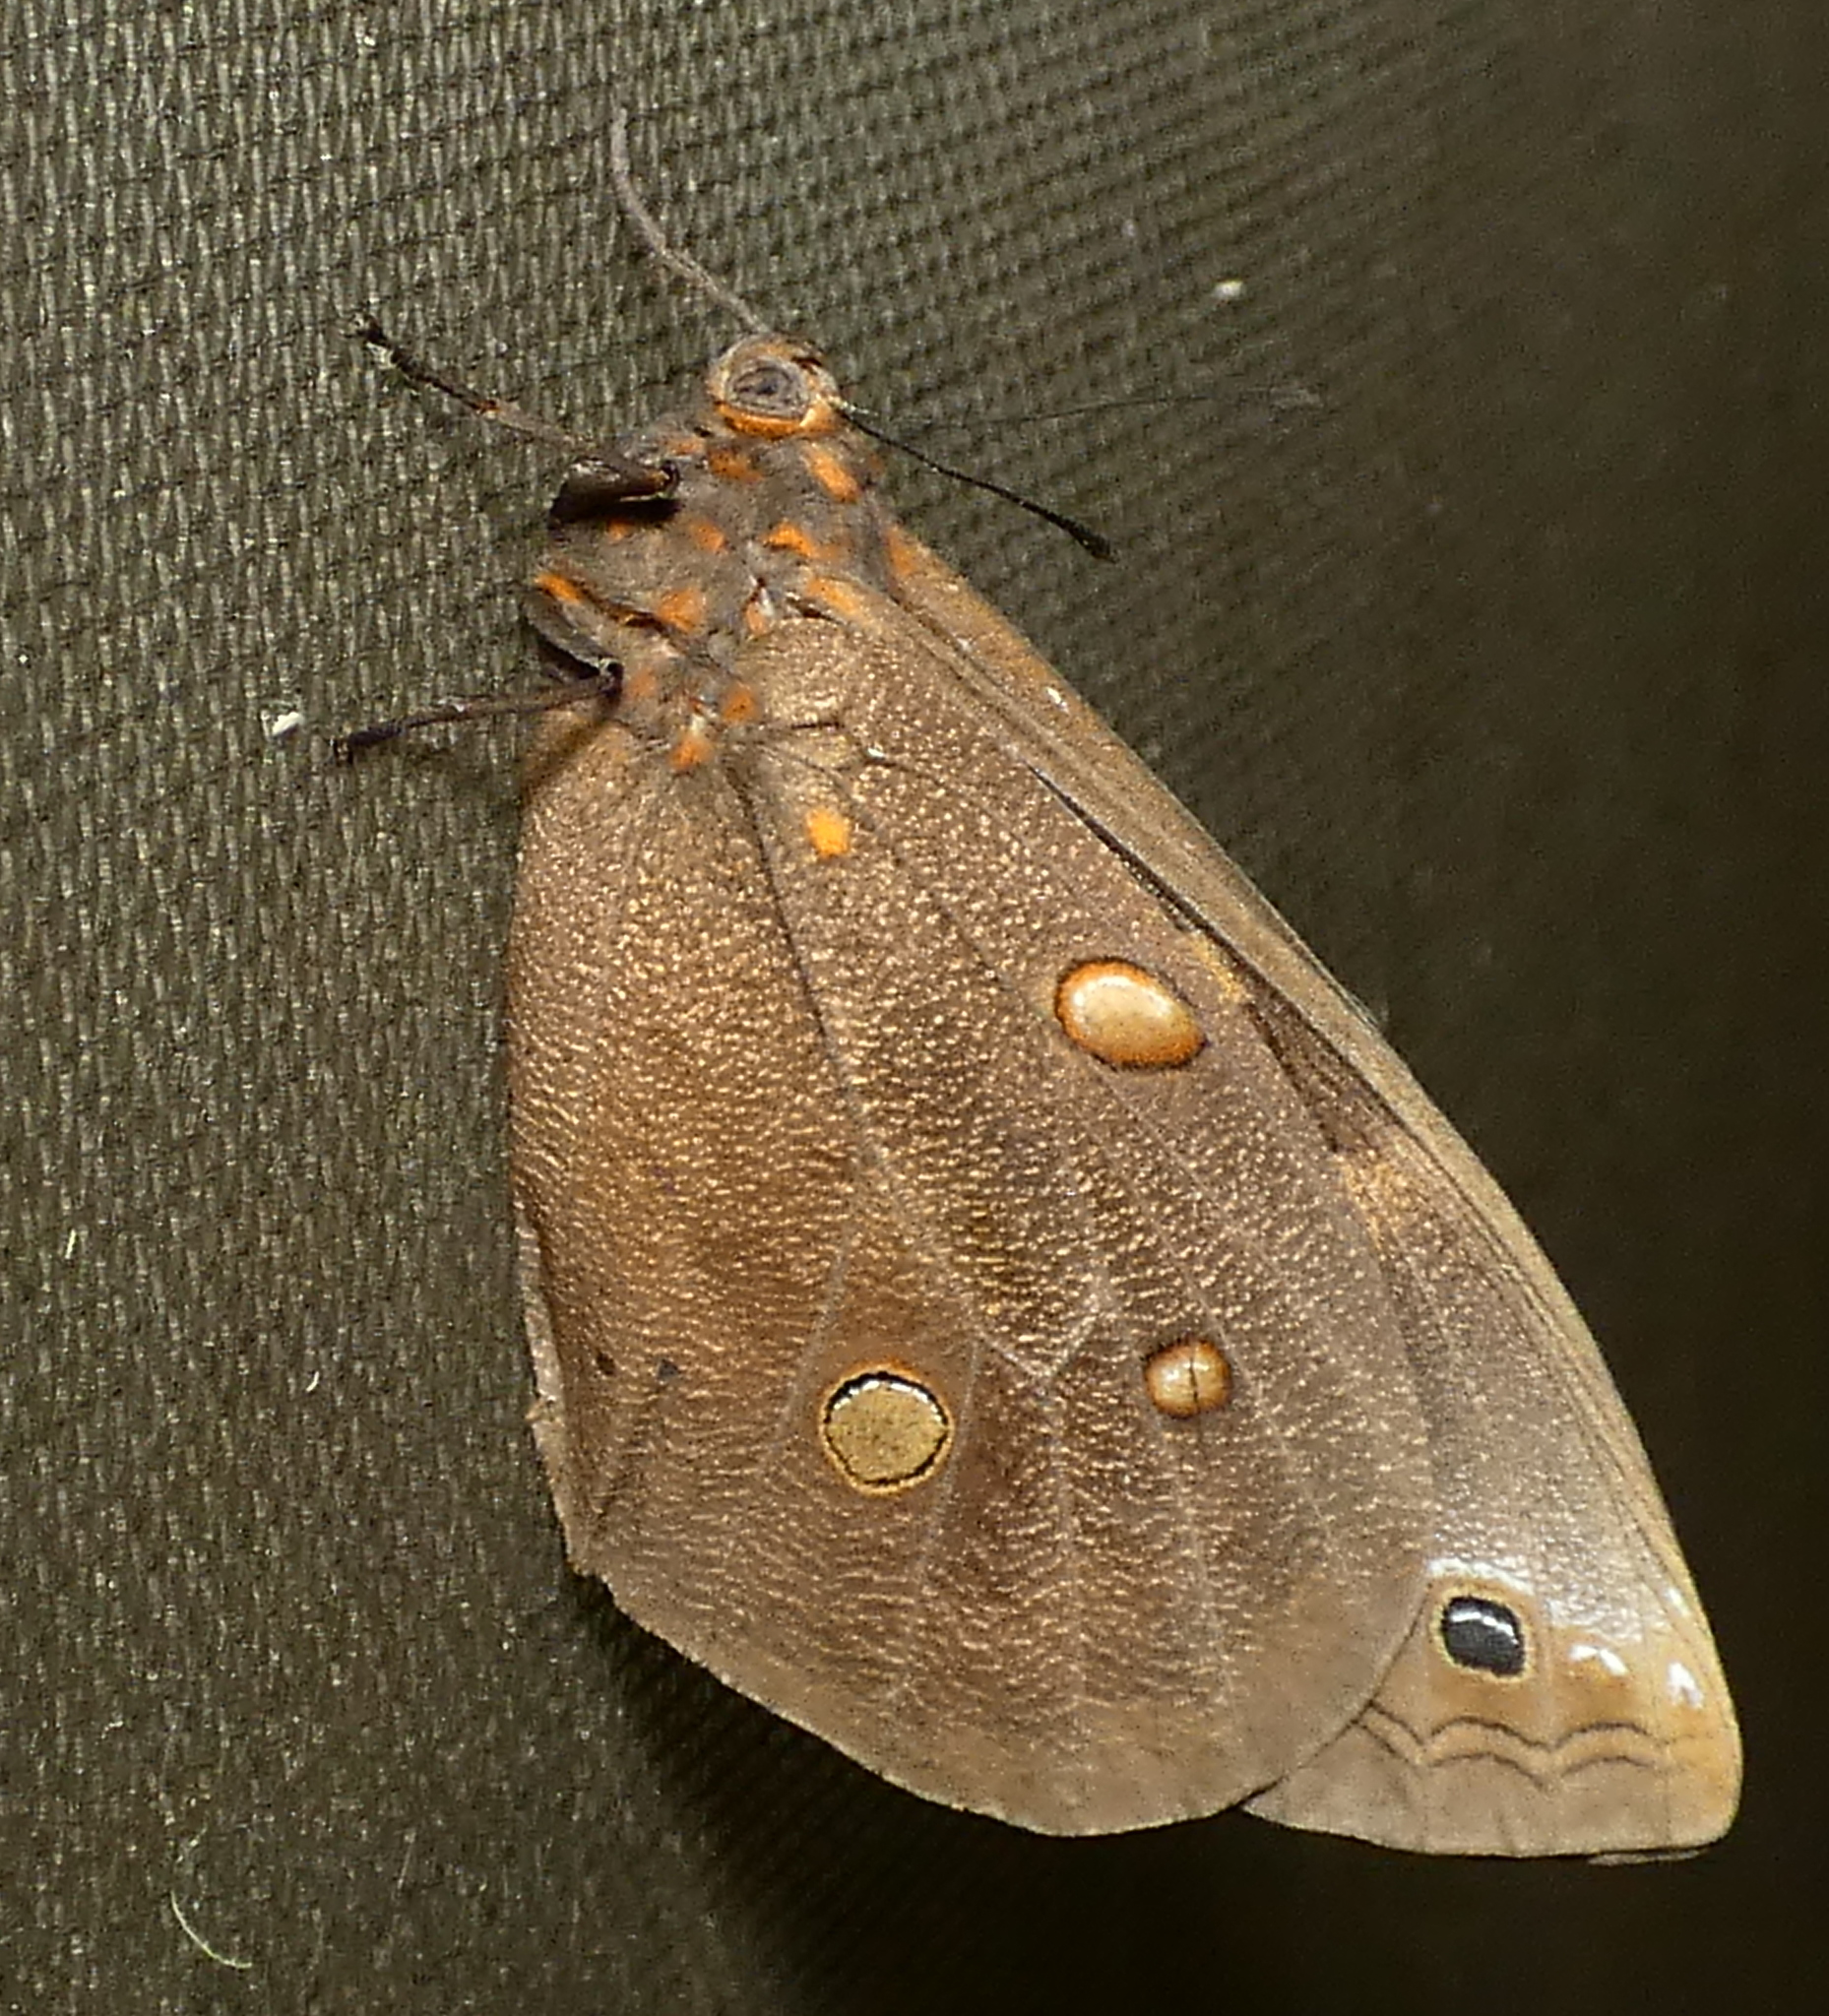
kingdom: Animalia
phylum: Arthropoda
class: Insecta
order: Lepidoptera
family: Nymphalidae
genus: Brassolis
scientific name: Brassolis sophorae
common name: Coconut caterpillar
